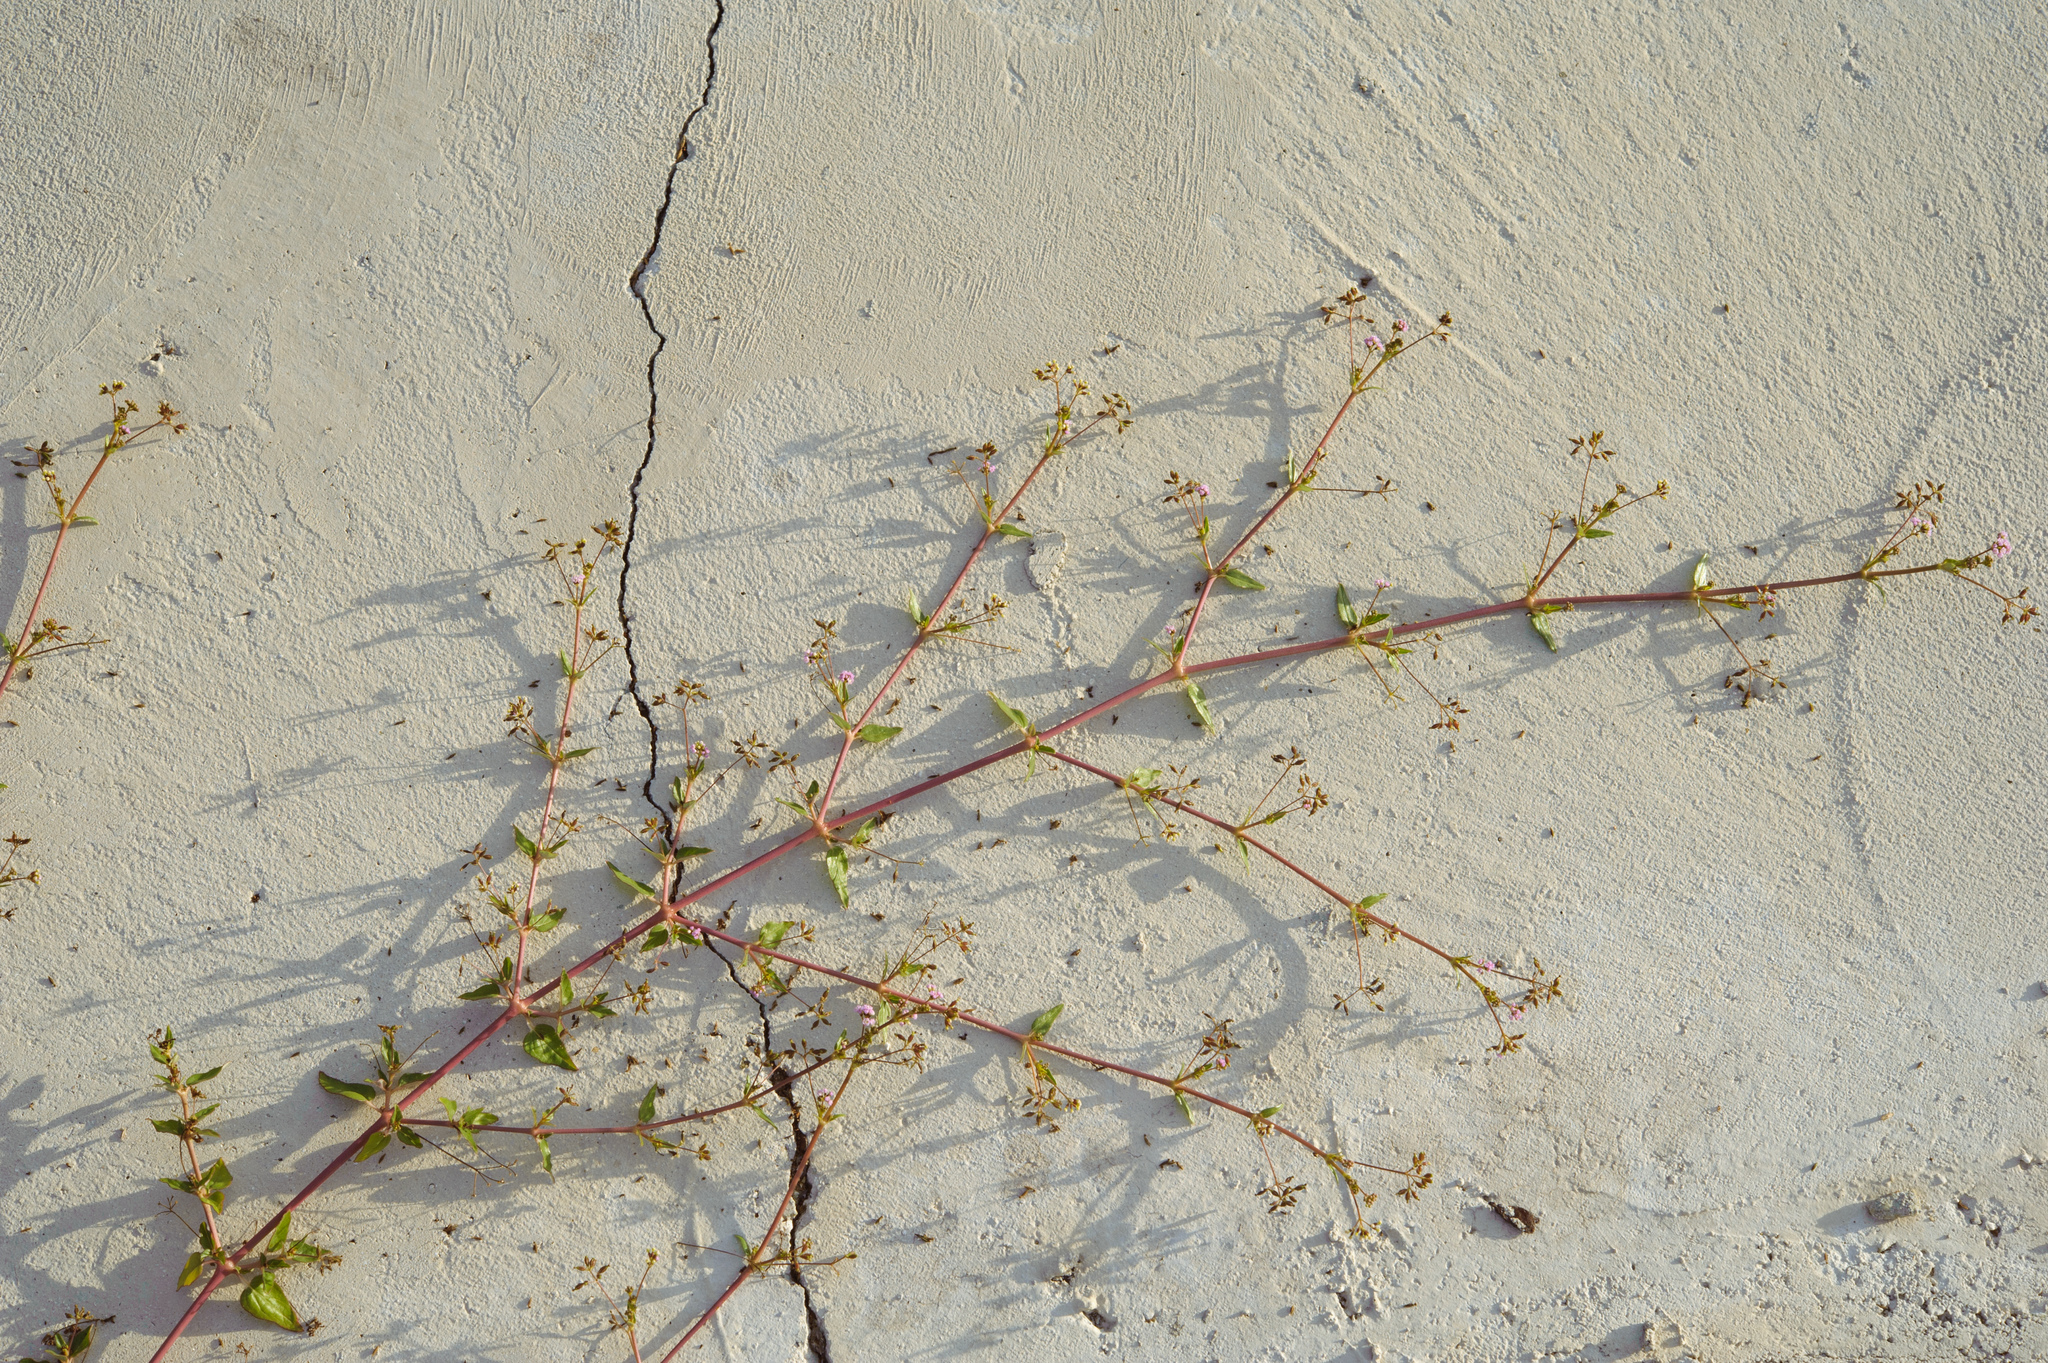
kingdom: Plantae
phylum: Tracheophyta
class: Magnoliopsida
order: Caryophyllales
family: Nyctaginaceae
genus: Boerhavia
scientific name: Boerhavia glabrata
